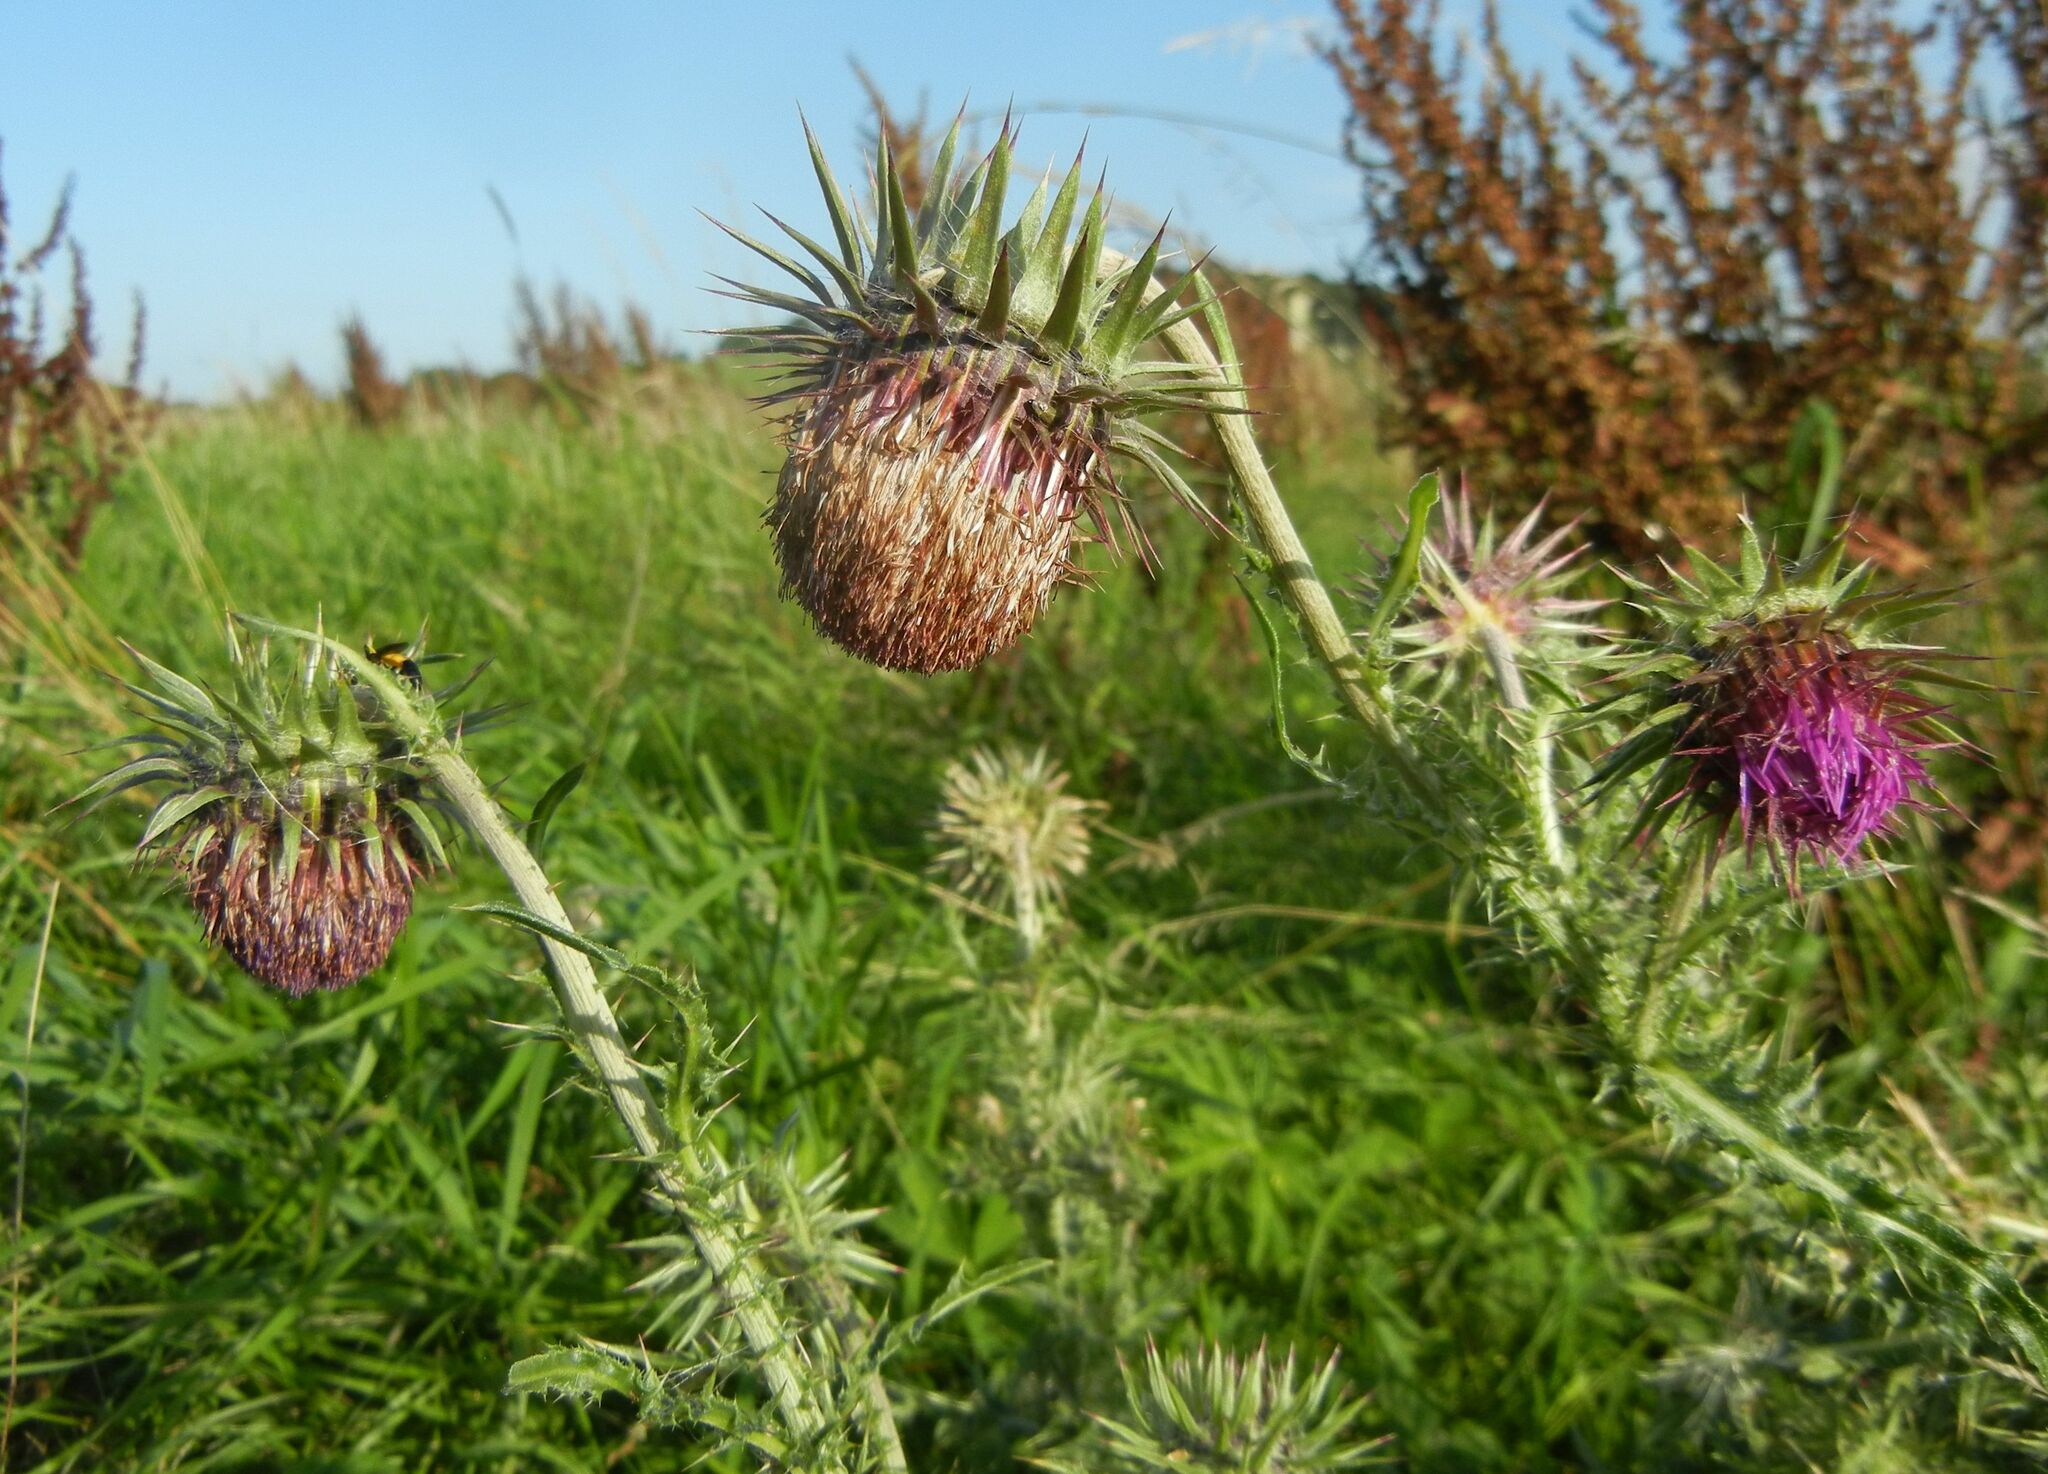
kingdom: Plantae
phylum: Tracheophyta
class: Magnoliopsida
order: Asterales
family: Asteraceae
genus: Carduus
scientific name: Carduus nutans
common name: Musk thistle
